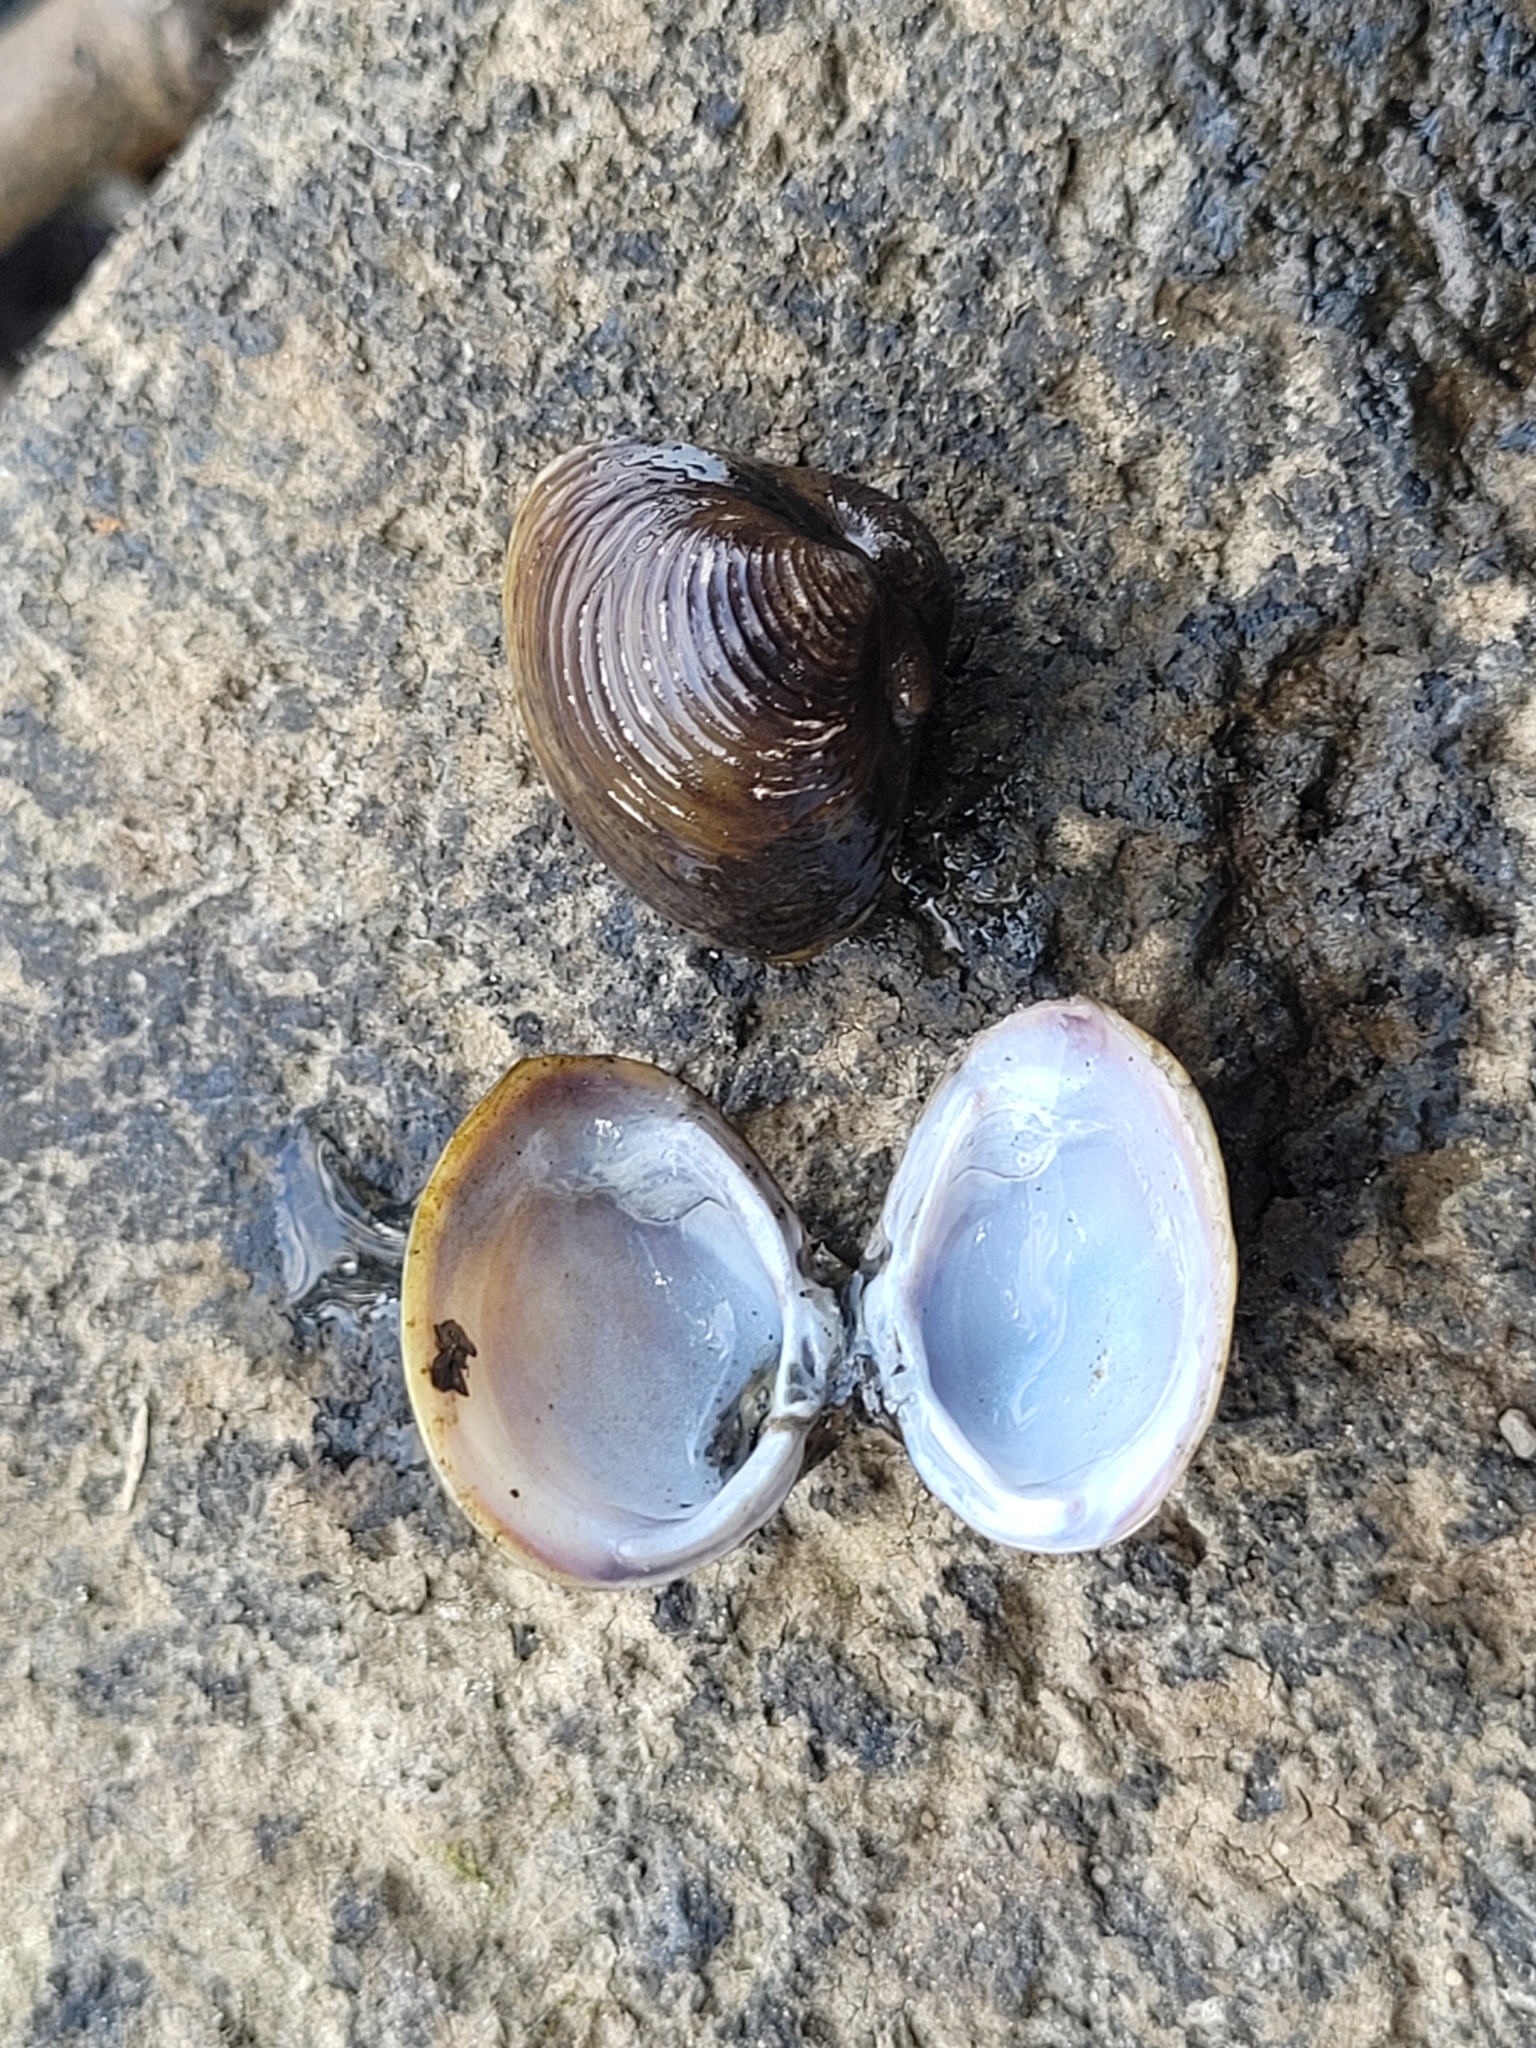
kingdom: Animalia
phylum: Mollusca
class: Bivalvia
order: Venerida
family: Cyrenidae
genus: Corbicula
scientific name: Corbicula fluminea
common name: Asian clam
